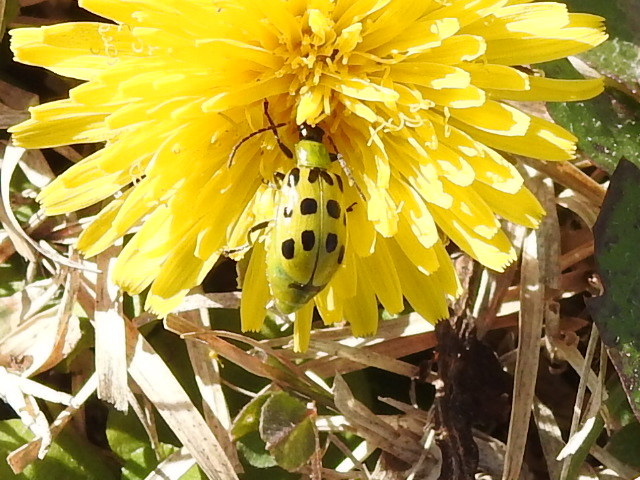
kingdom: Animalia
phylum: Arthropoda
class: Insecta
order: Coleoptera
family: Chrysomelidae
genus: Diabrotica
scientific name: Diabrotica undecimpunctata
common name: Spotted cucumber beetle
